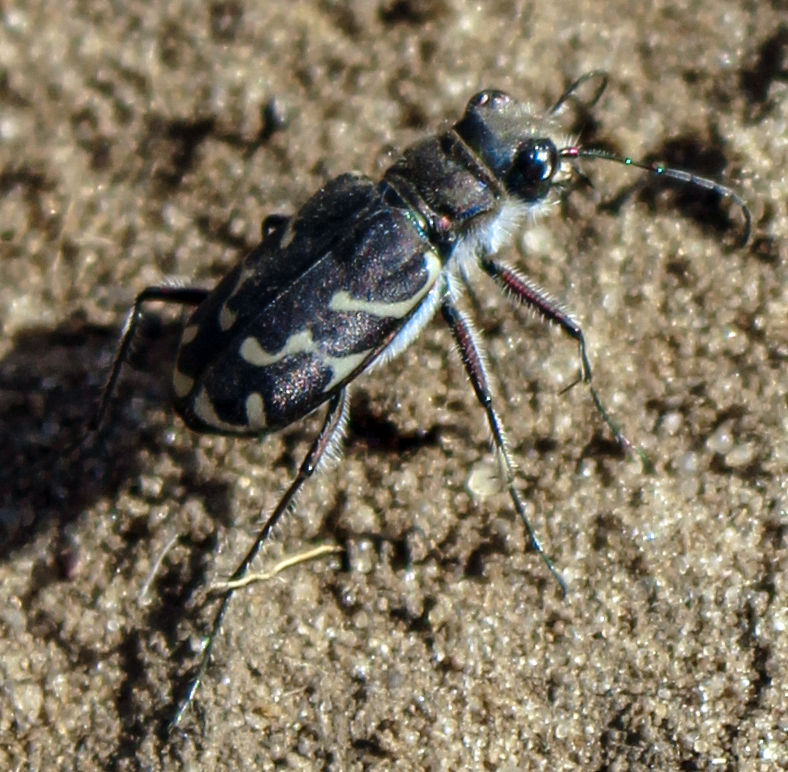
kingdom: Animalia
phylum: Arthropoda
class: Insecta
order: Coleoptera
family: Carabidae
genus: Cicindela
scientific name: Cicindela tranquebarica
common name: Oblique-lined tiger beetle
